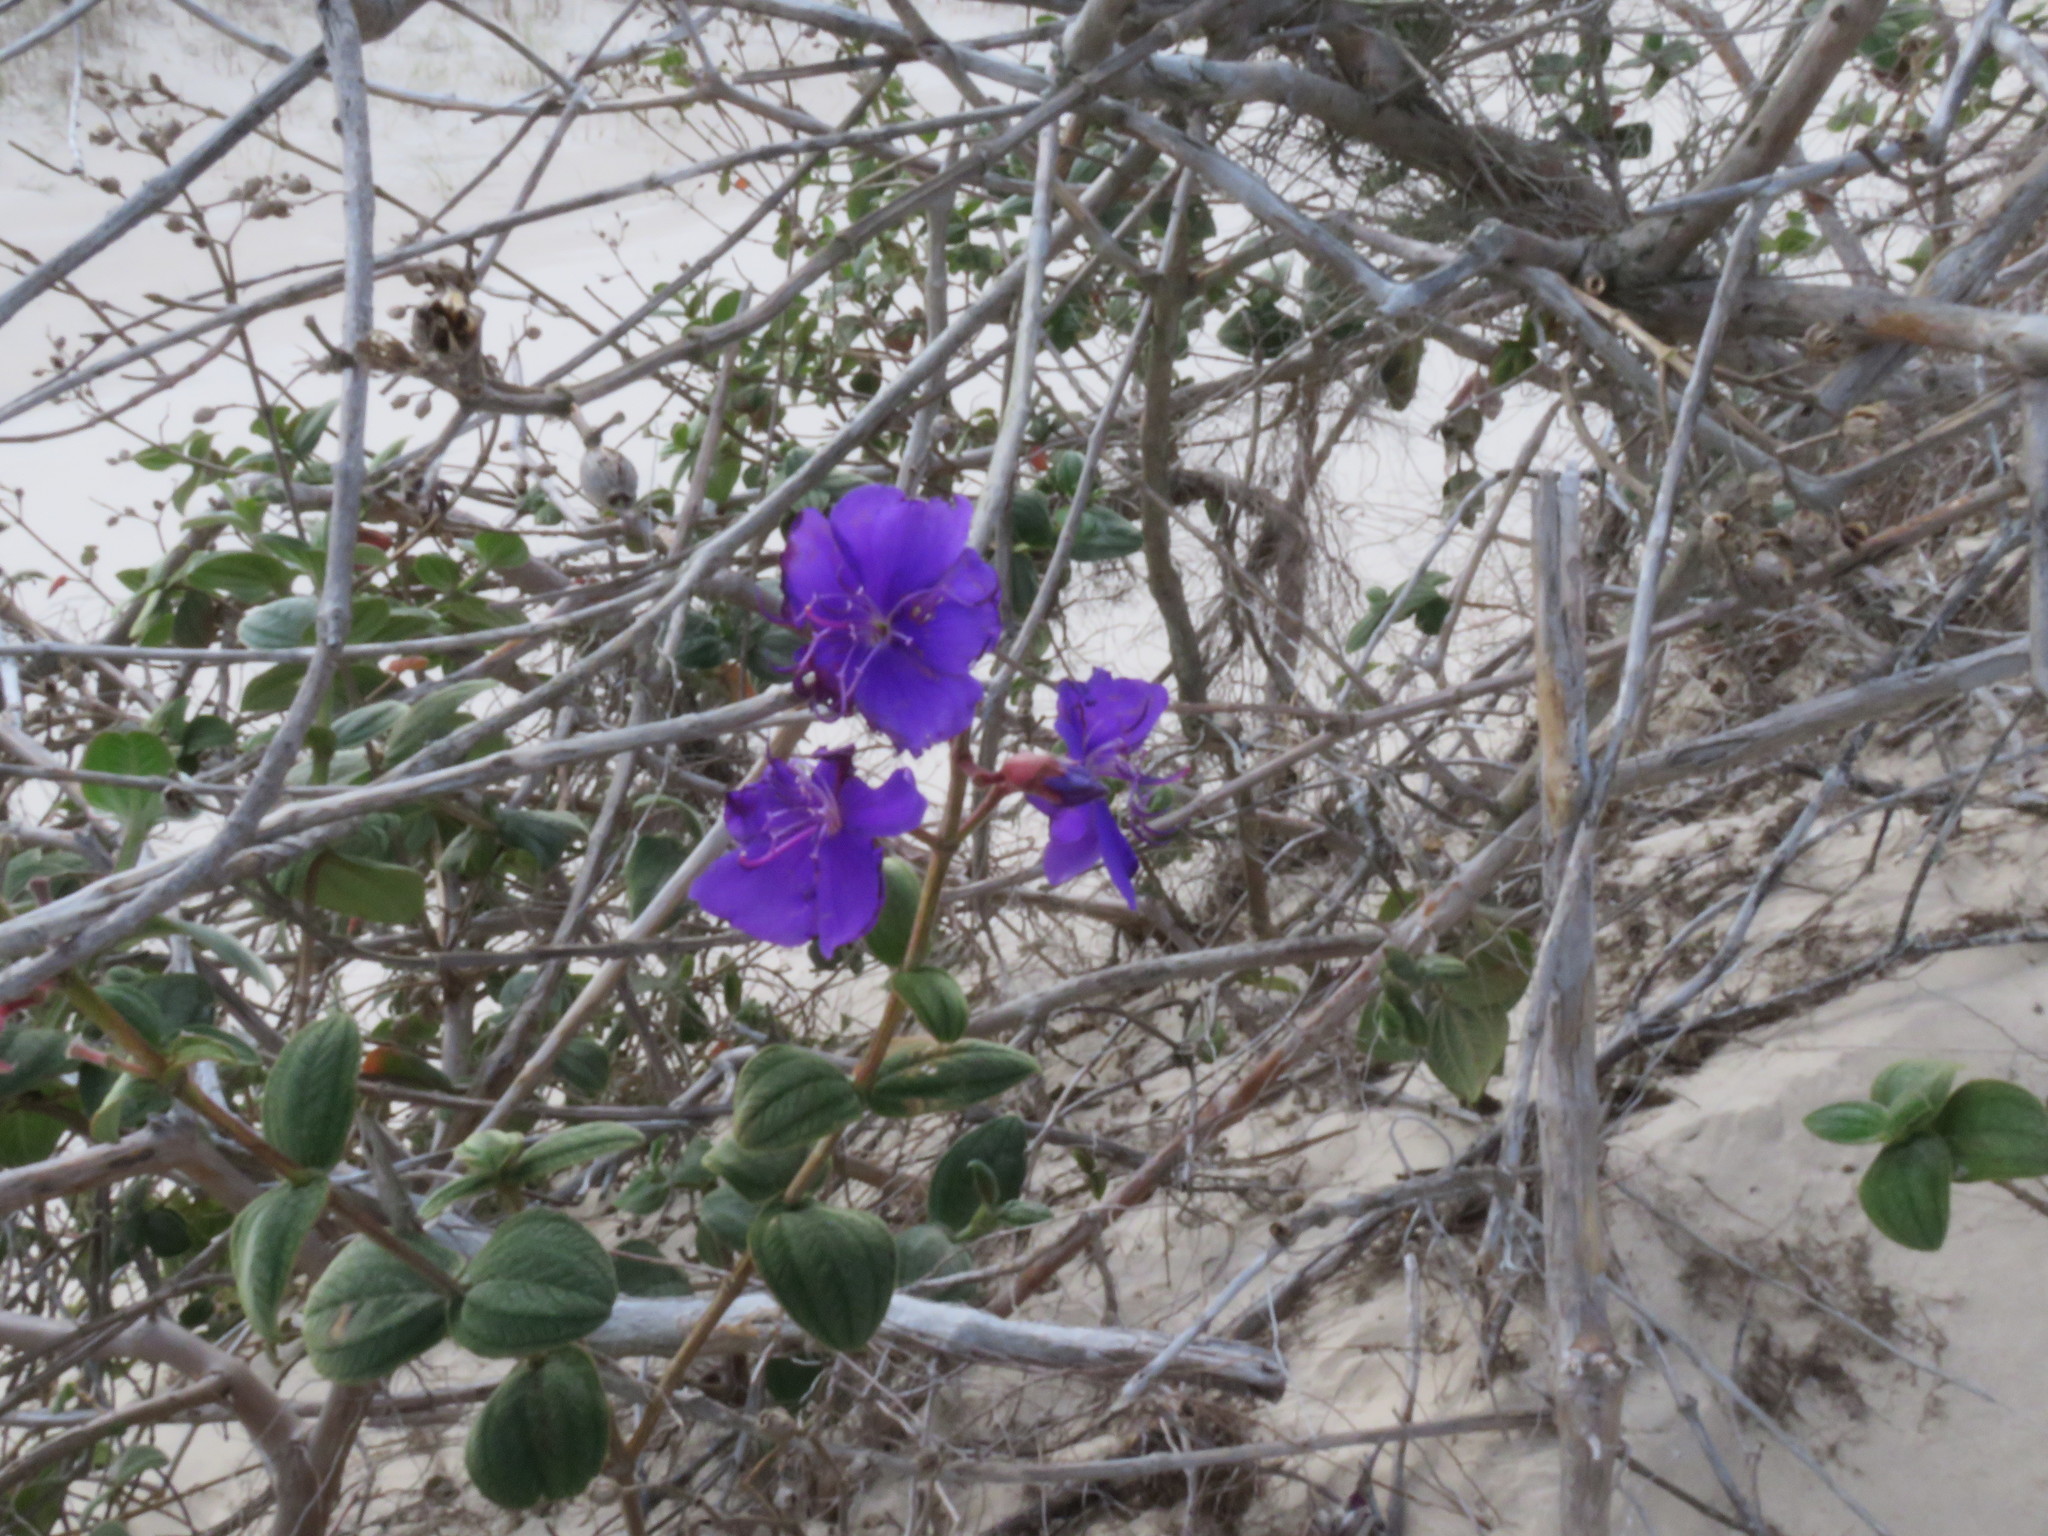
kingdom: Plantae
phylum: Tracheophyta
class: Magnoliopsida
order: Myrtales
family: Melastomataceae
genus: Pleroma
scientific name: Pleroma urvilleanum
